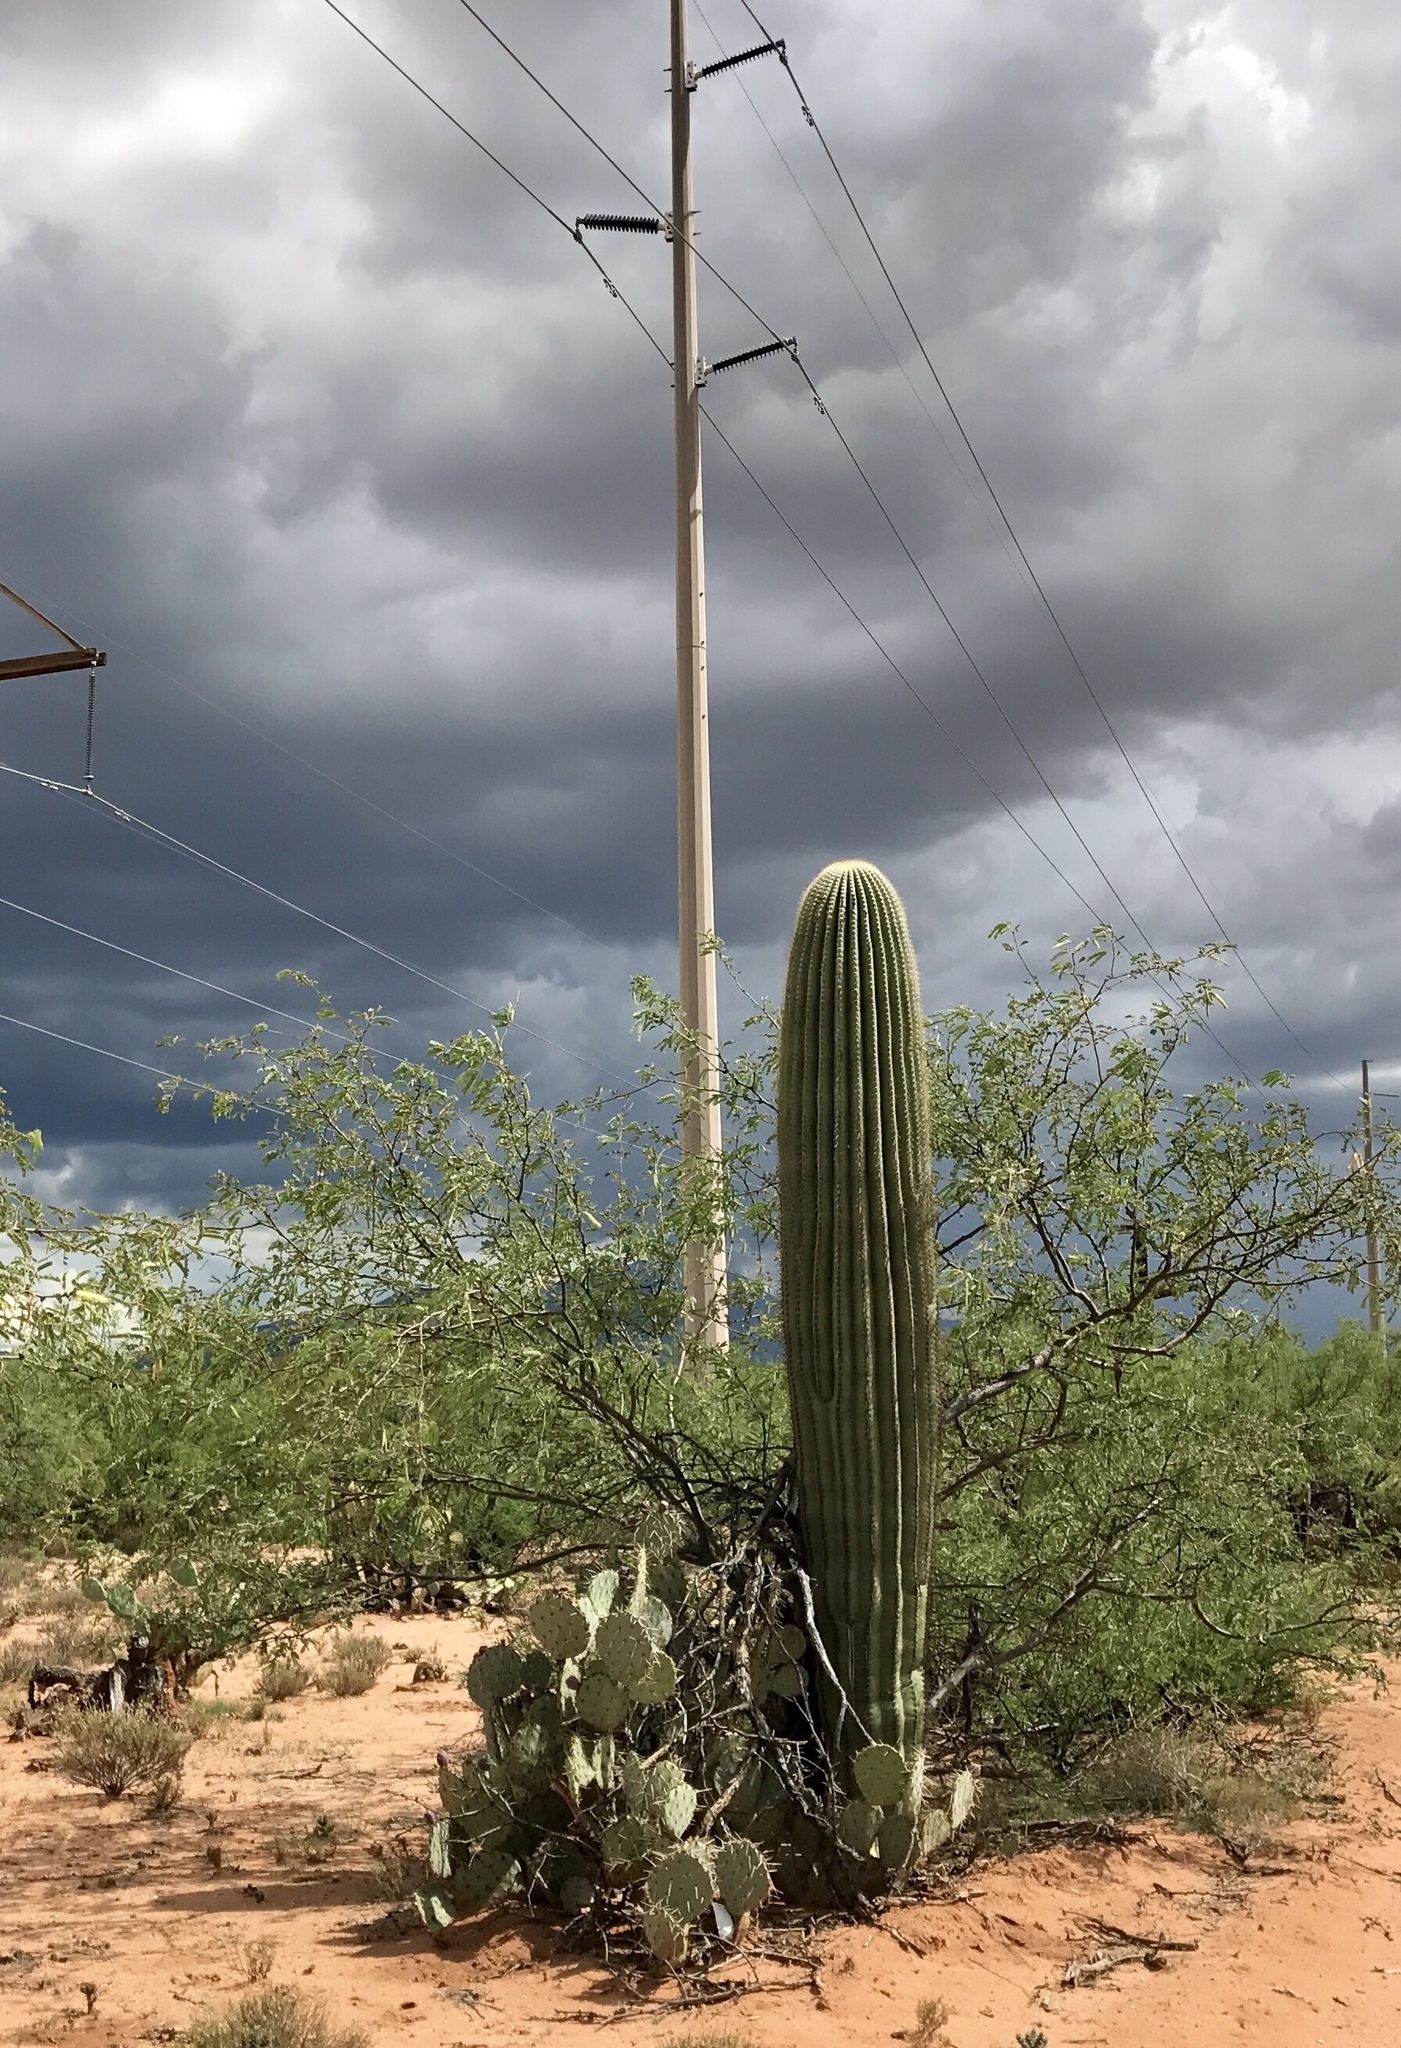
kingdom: Plantae
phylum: Tracheophyta
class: Magnoliopsida
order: Caryophyllales
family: Cactaceae
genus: Carnegiea
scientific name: Carnegiea gigantea
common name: Saguaro
